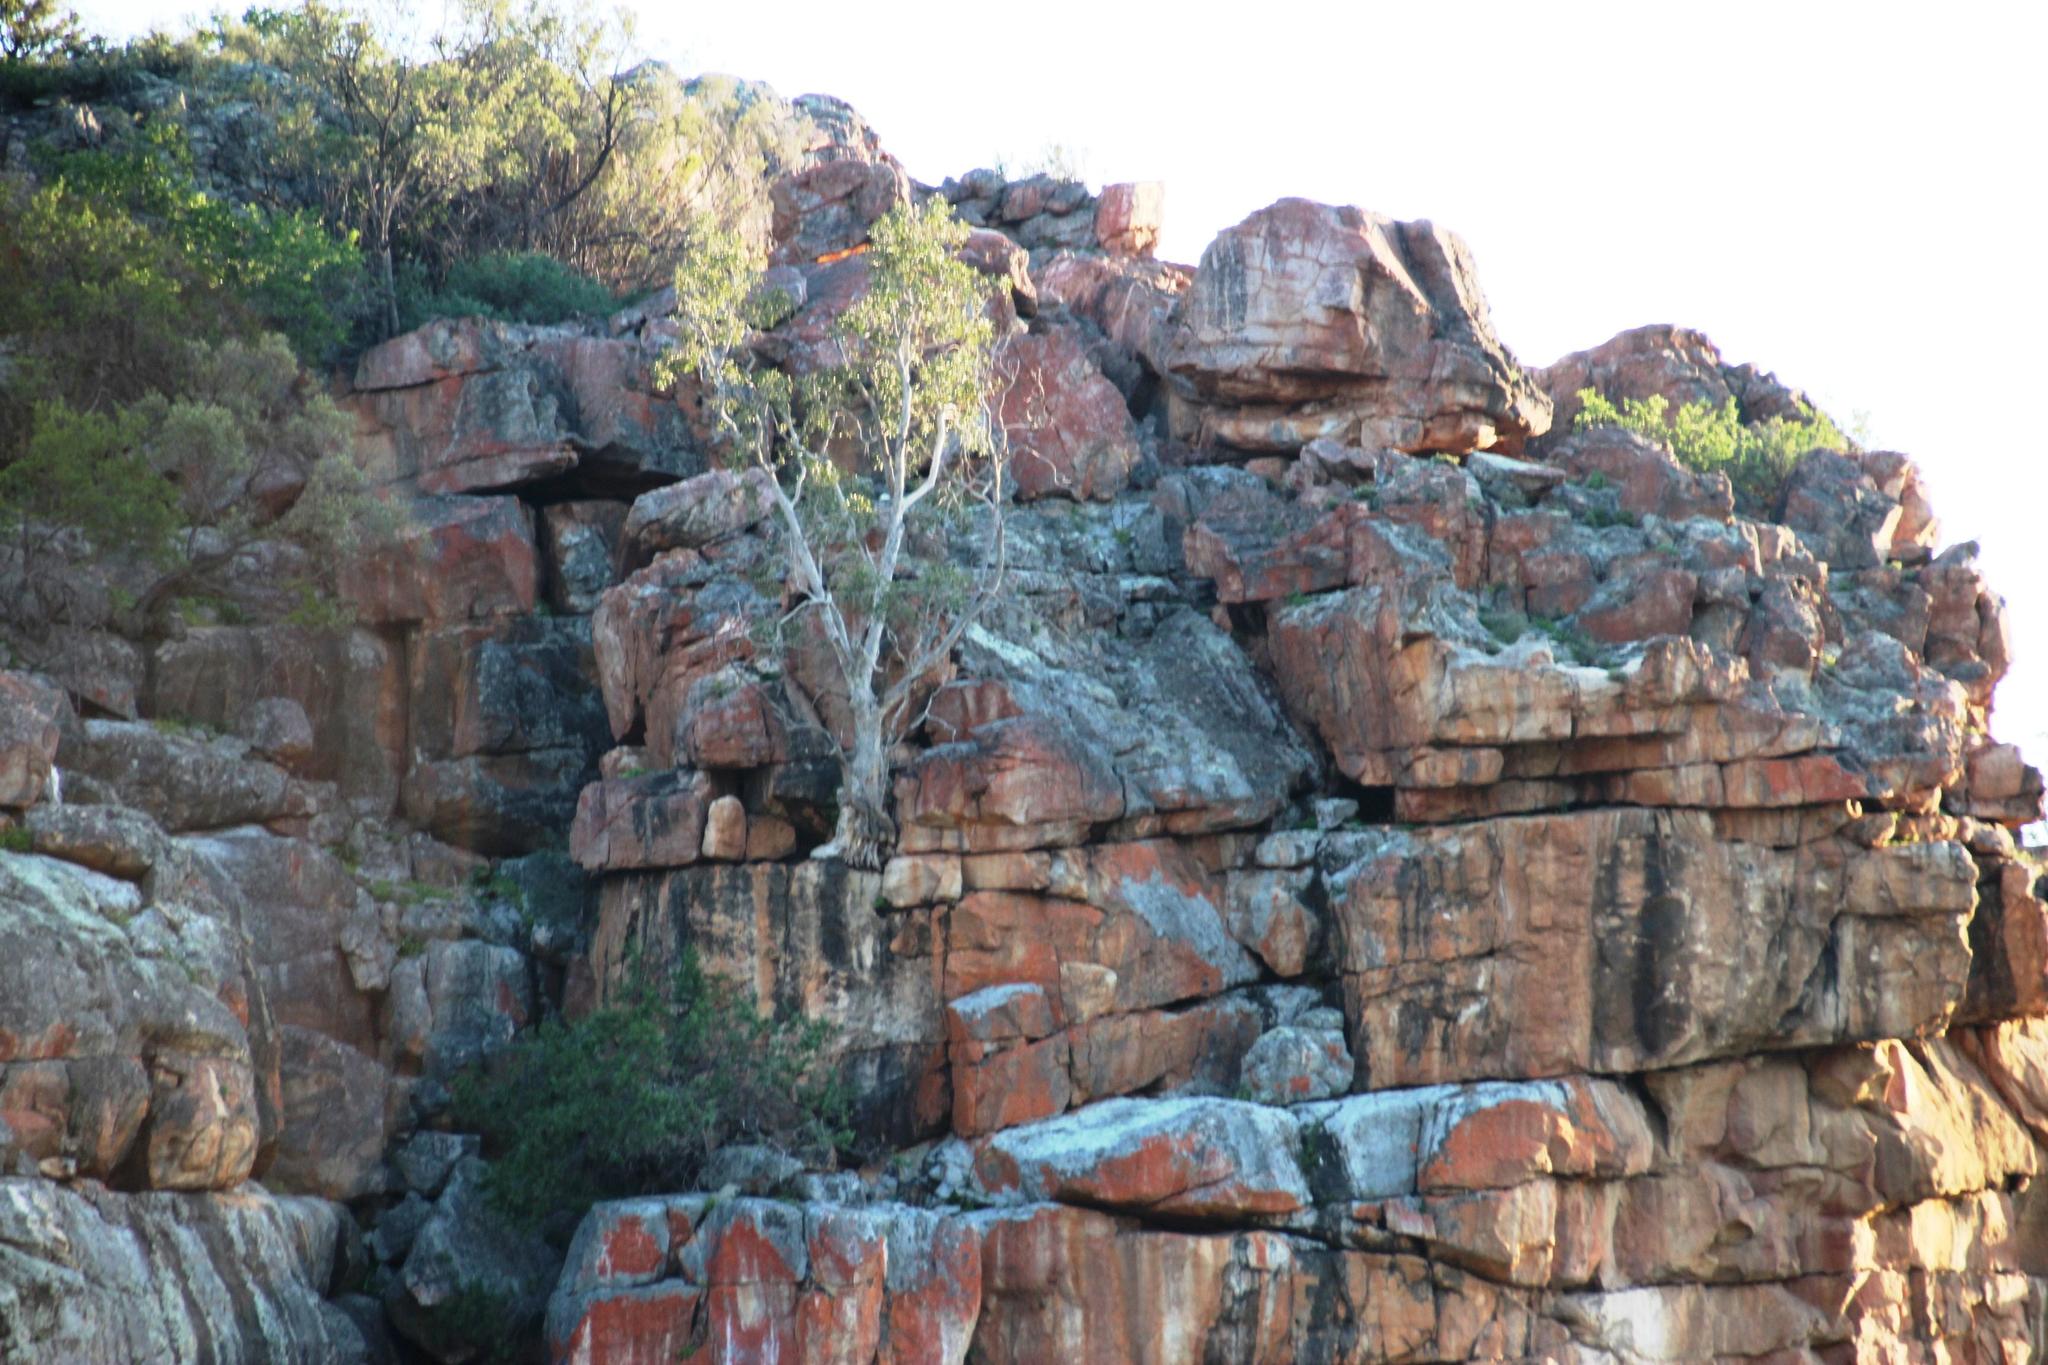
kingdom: Plantae
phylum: Tracheophyta
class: Magnoliopsida
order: Rosales
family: Moraceae
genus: Ficus
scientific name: Ficus cordata
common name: Namaqua rock fig
